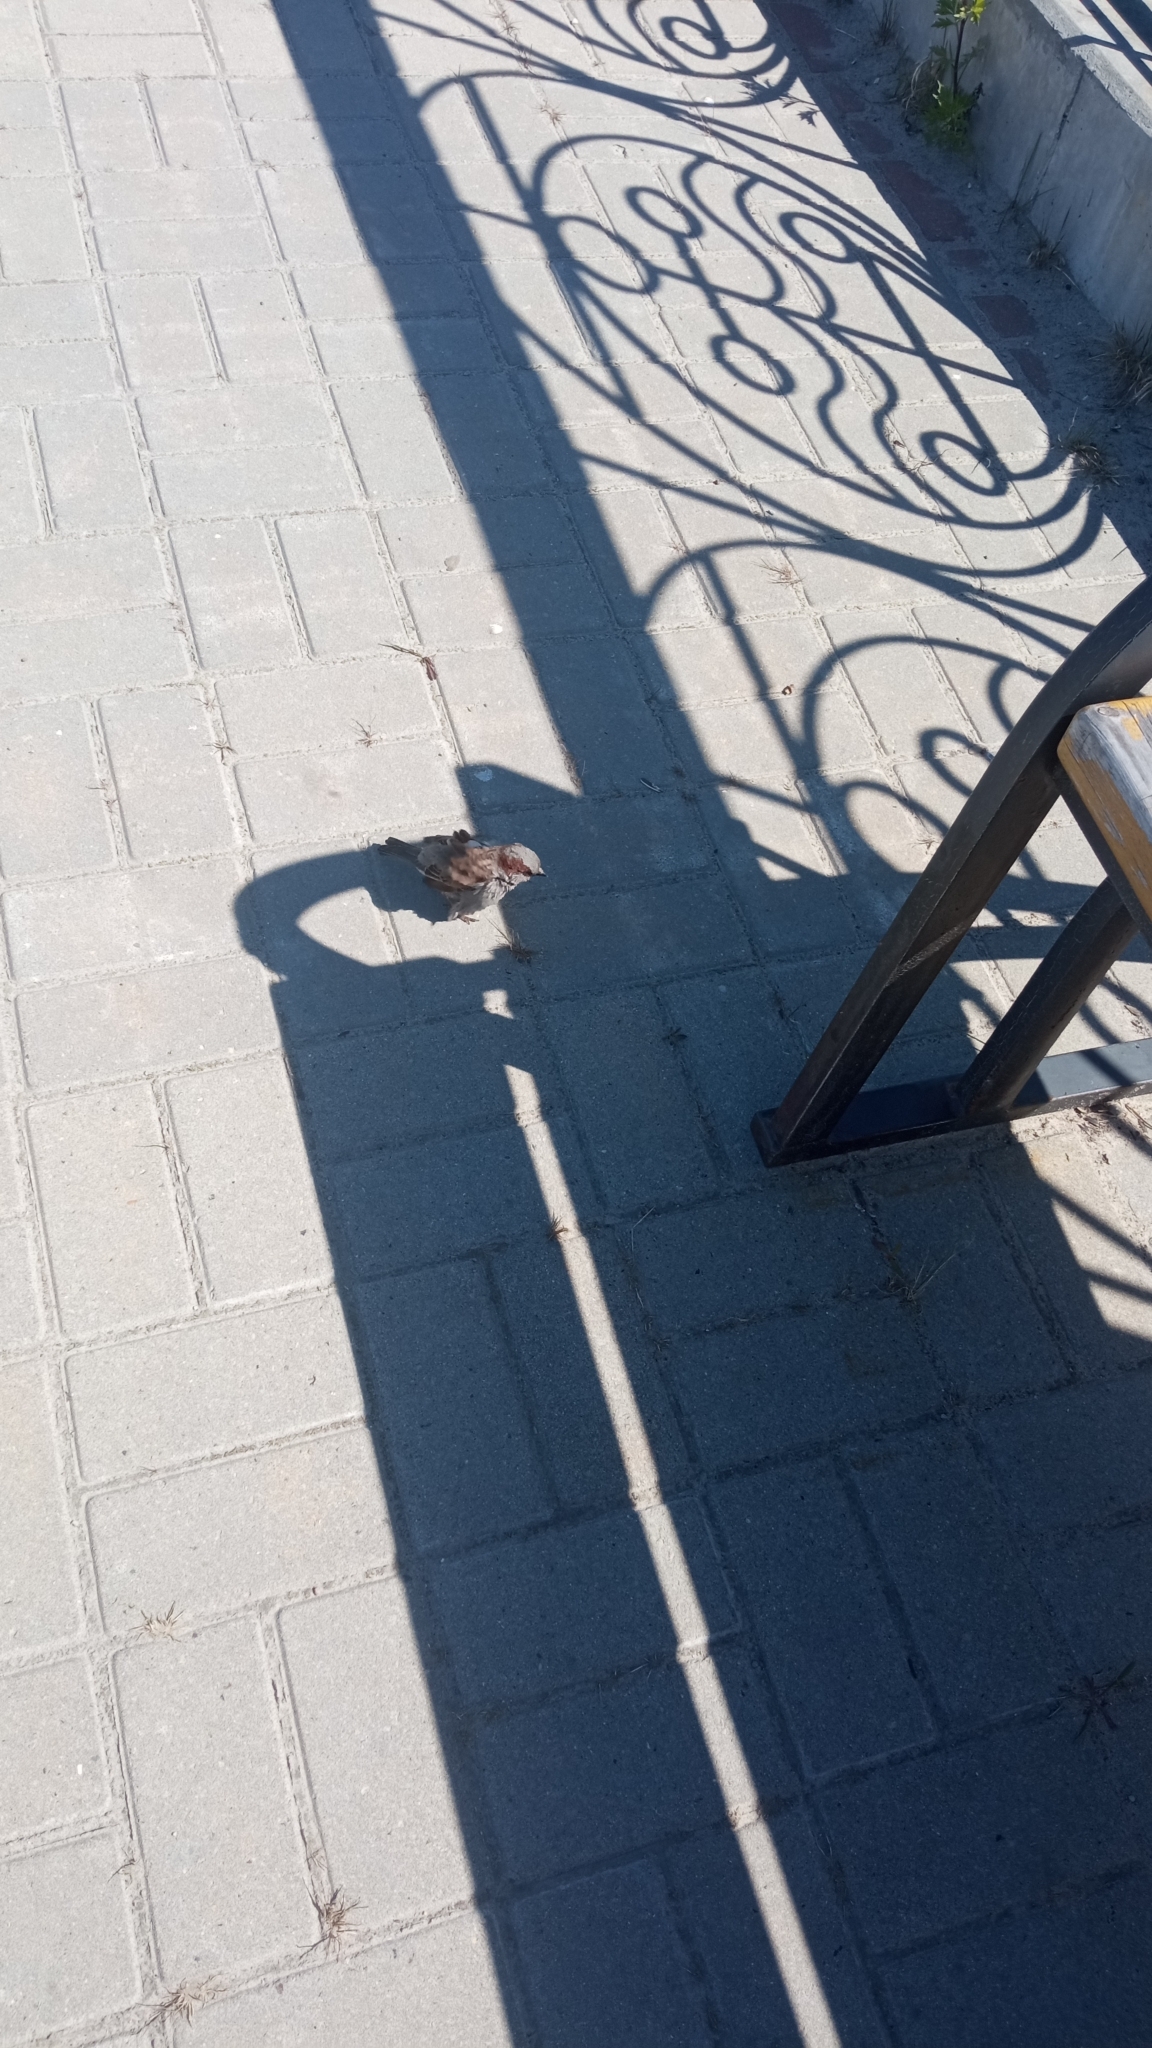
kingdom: Animalia
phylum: Chordata
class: Aves
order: Passeriformes
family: Passeridae
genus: Passer
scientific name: Passer domesticus
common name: House sparrow
